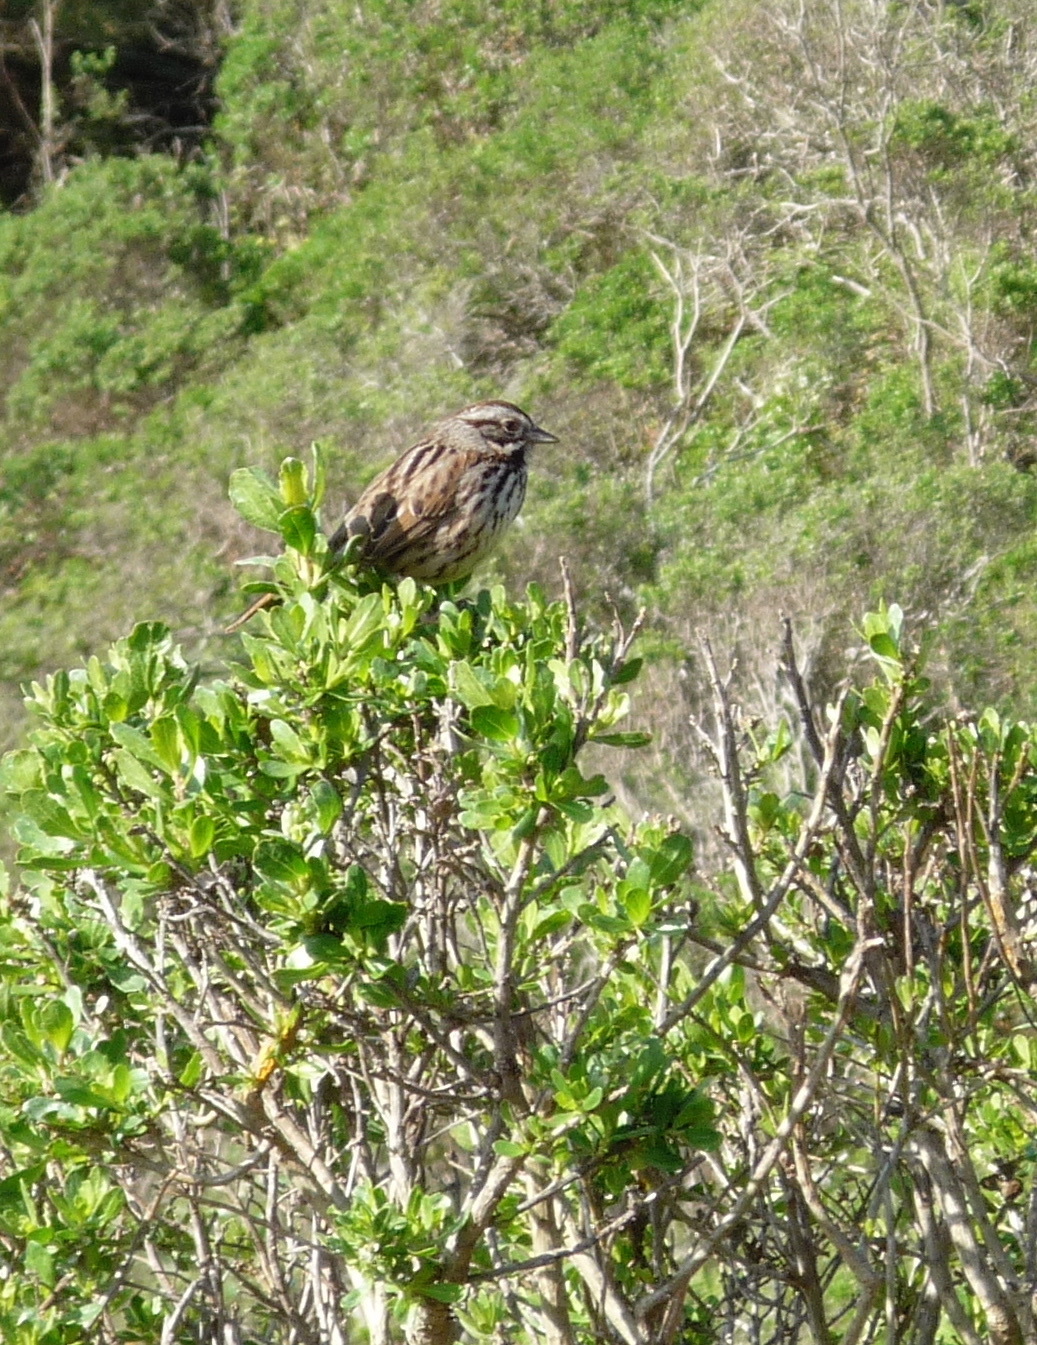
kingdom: Animalia
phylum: Chordata
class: Aves
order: Passeriformes
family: Passerellidae
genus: Melospiza
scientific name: Melospiza melodia
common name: Song sparrow
